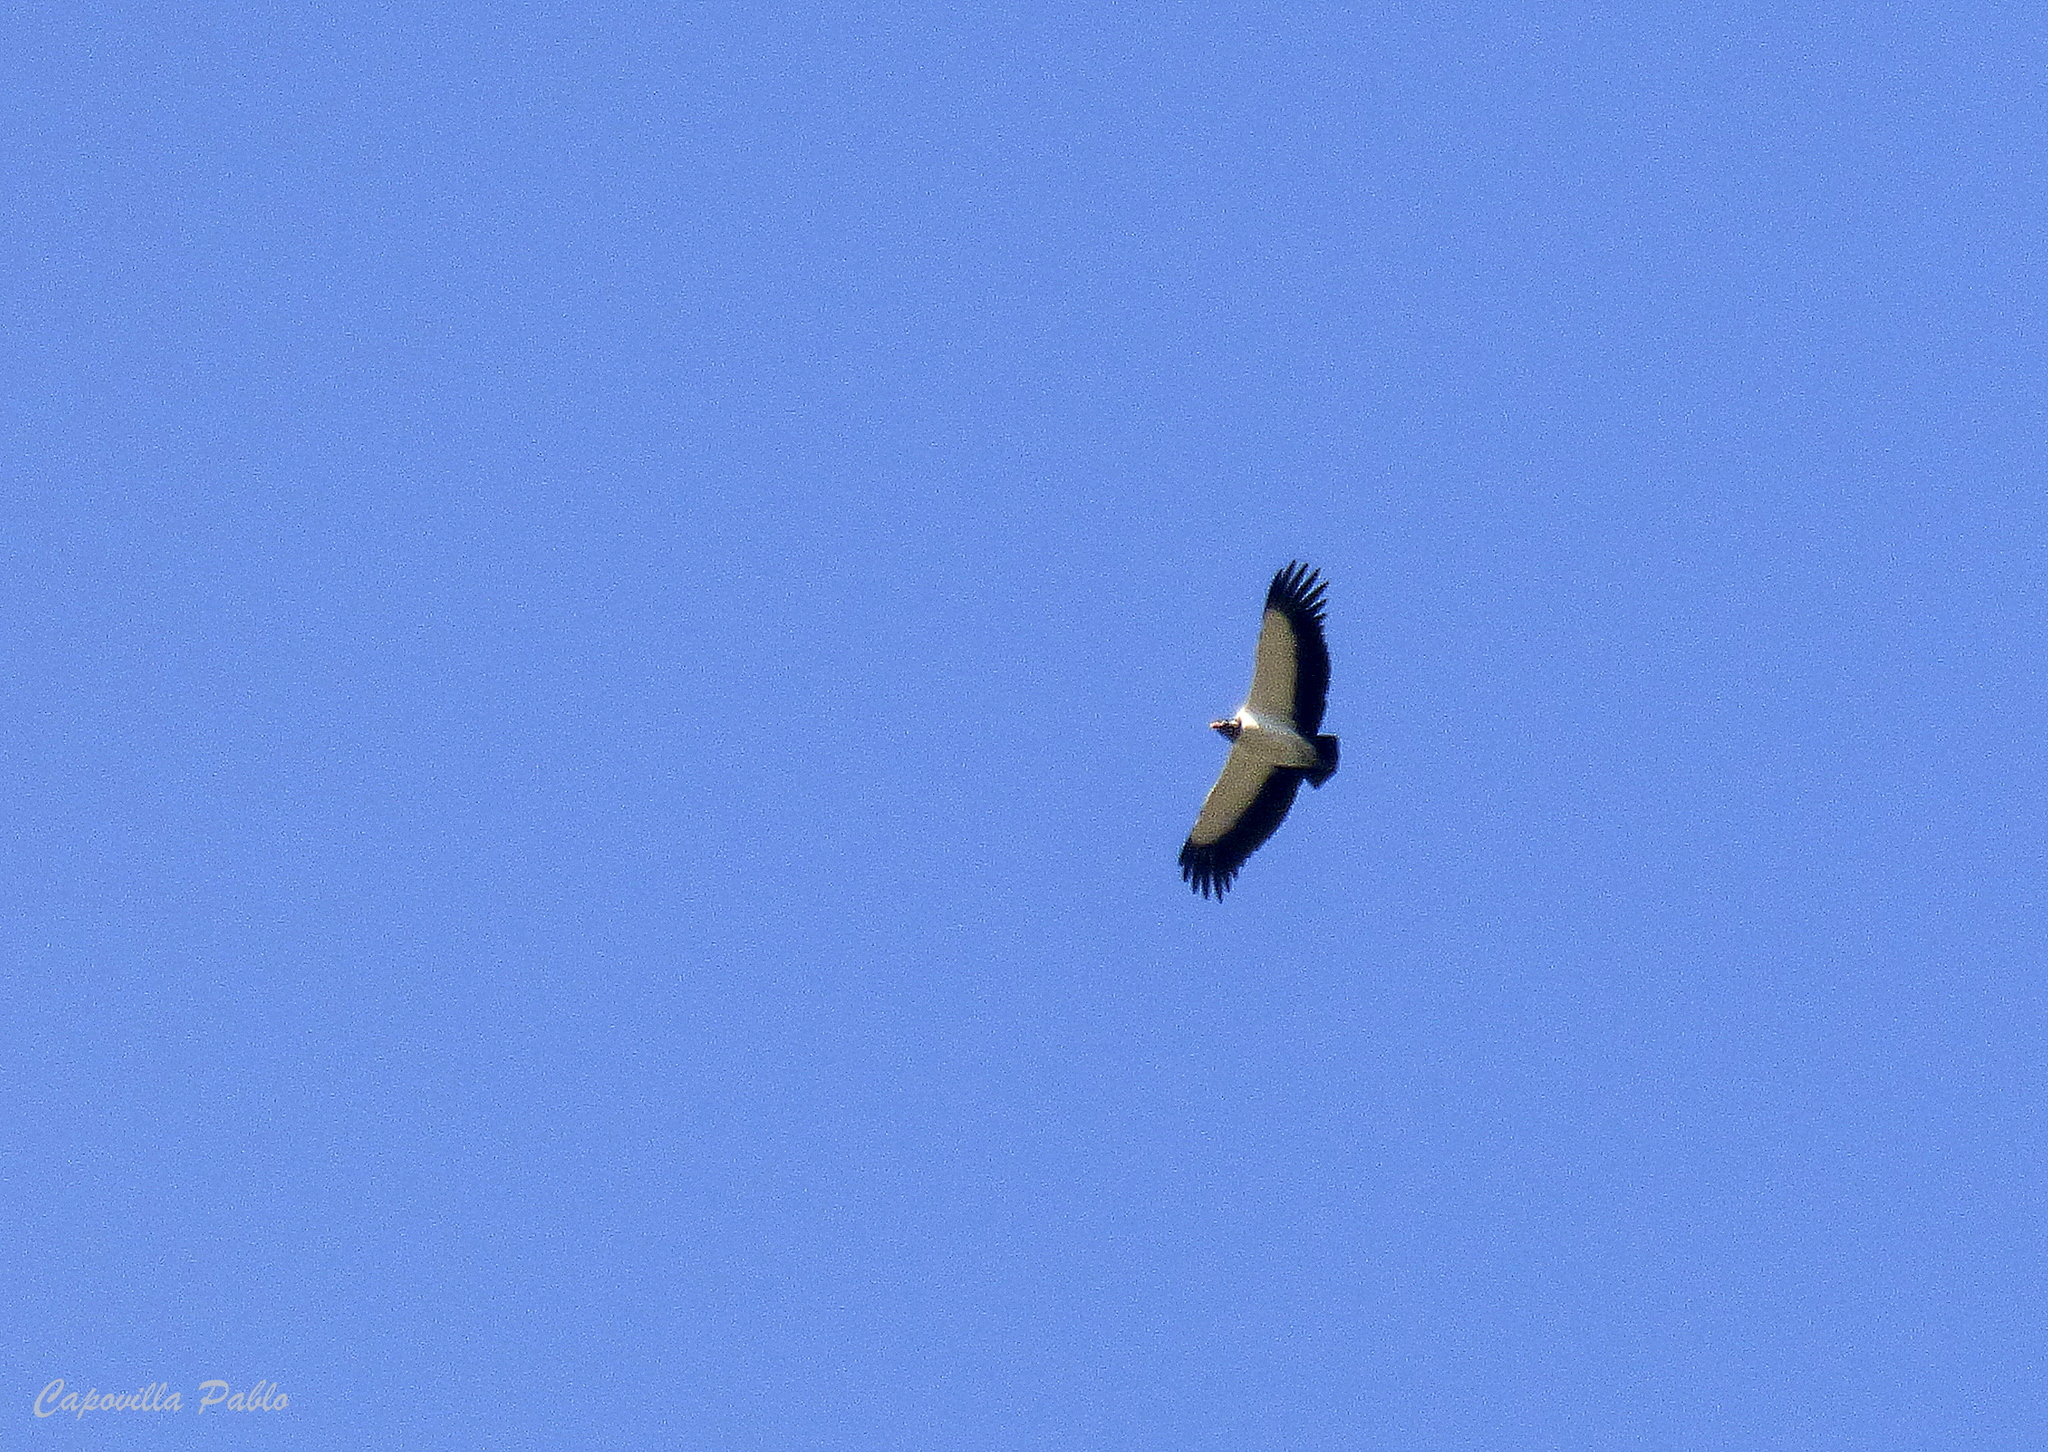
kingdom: Animalia
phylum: Chordata
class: Aves
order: Accipitriformes
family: Cathartidae
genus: Sarcoramphus
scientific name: Sarcoramphus papa
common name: King vulture
